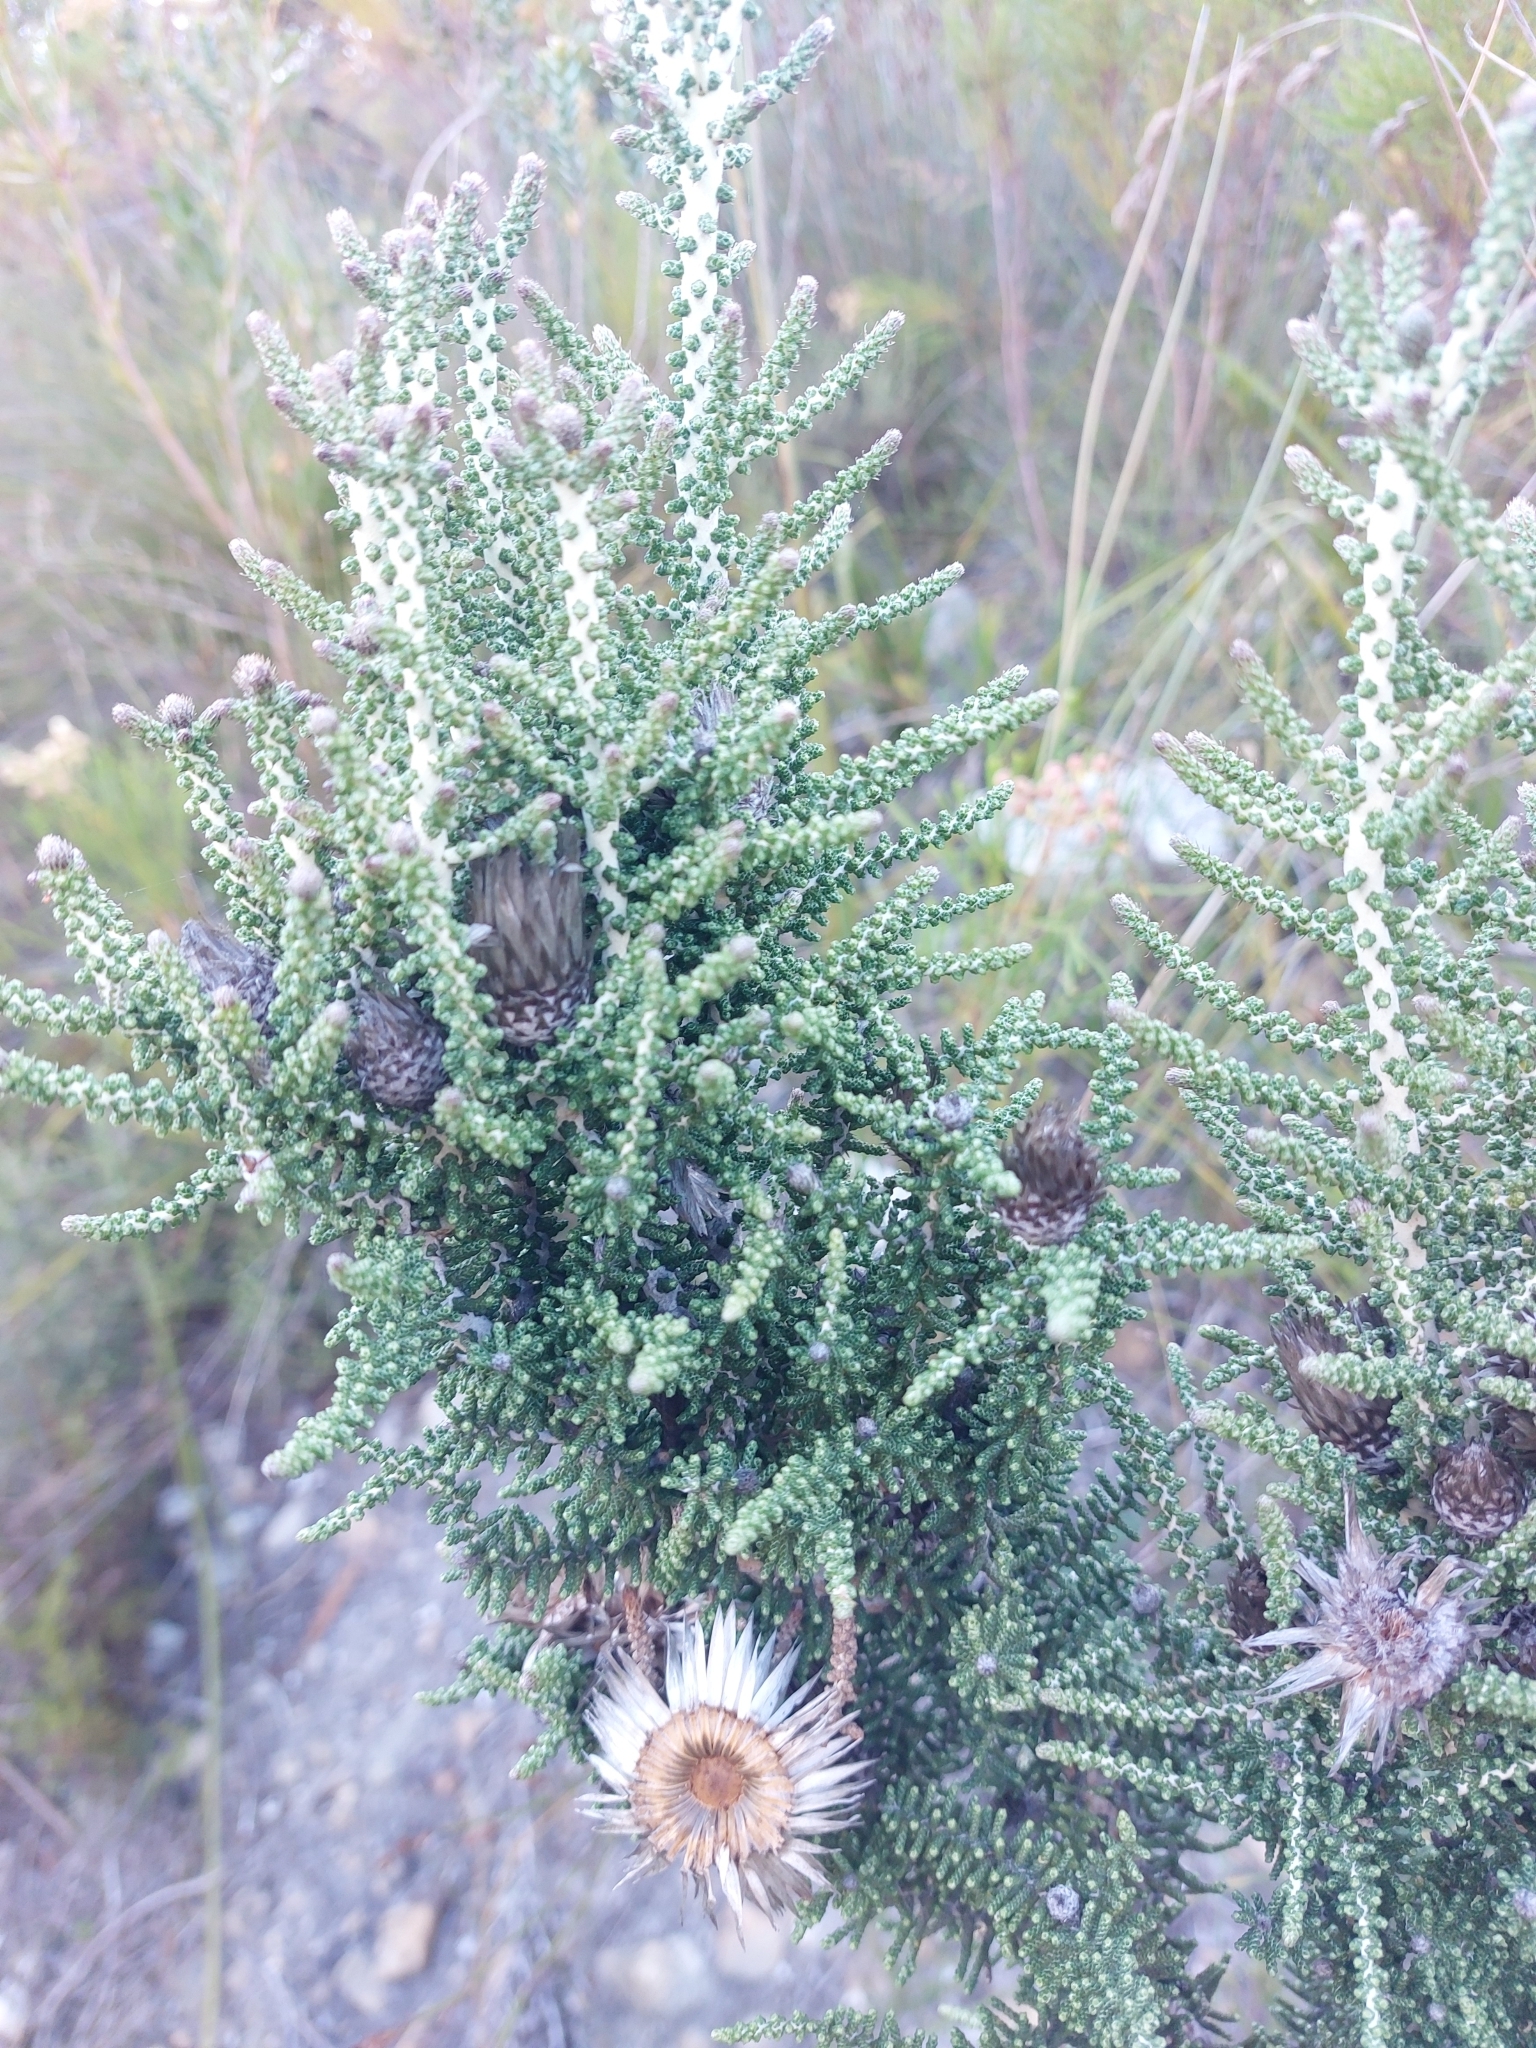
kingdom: Plantae
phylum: Tracheophyta
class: Magnoliopsida
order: Asterales
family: Asteraceae
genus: Phaenocoma
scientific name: Phaenocoma prolifera
